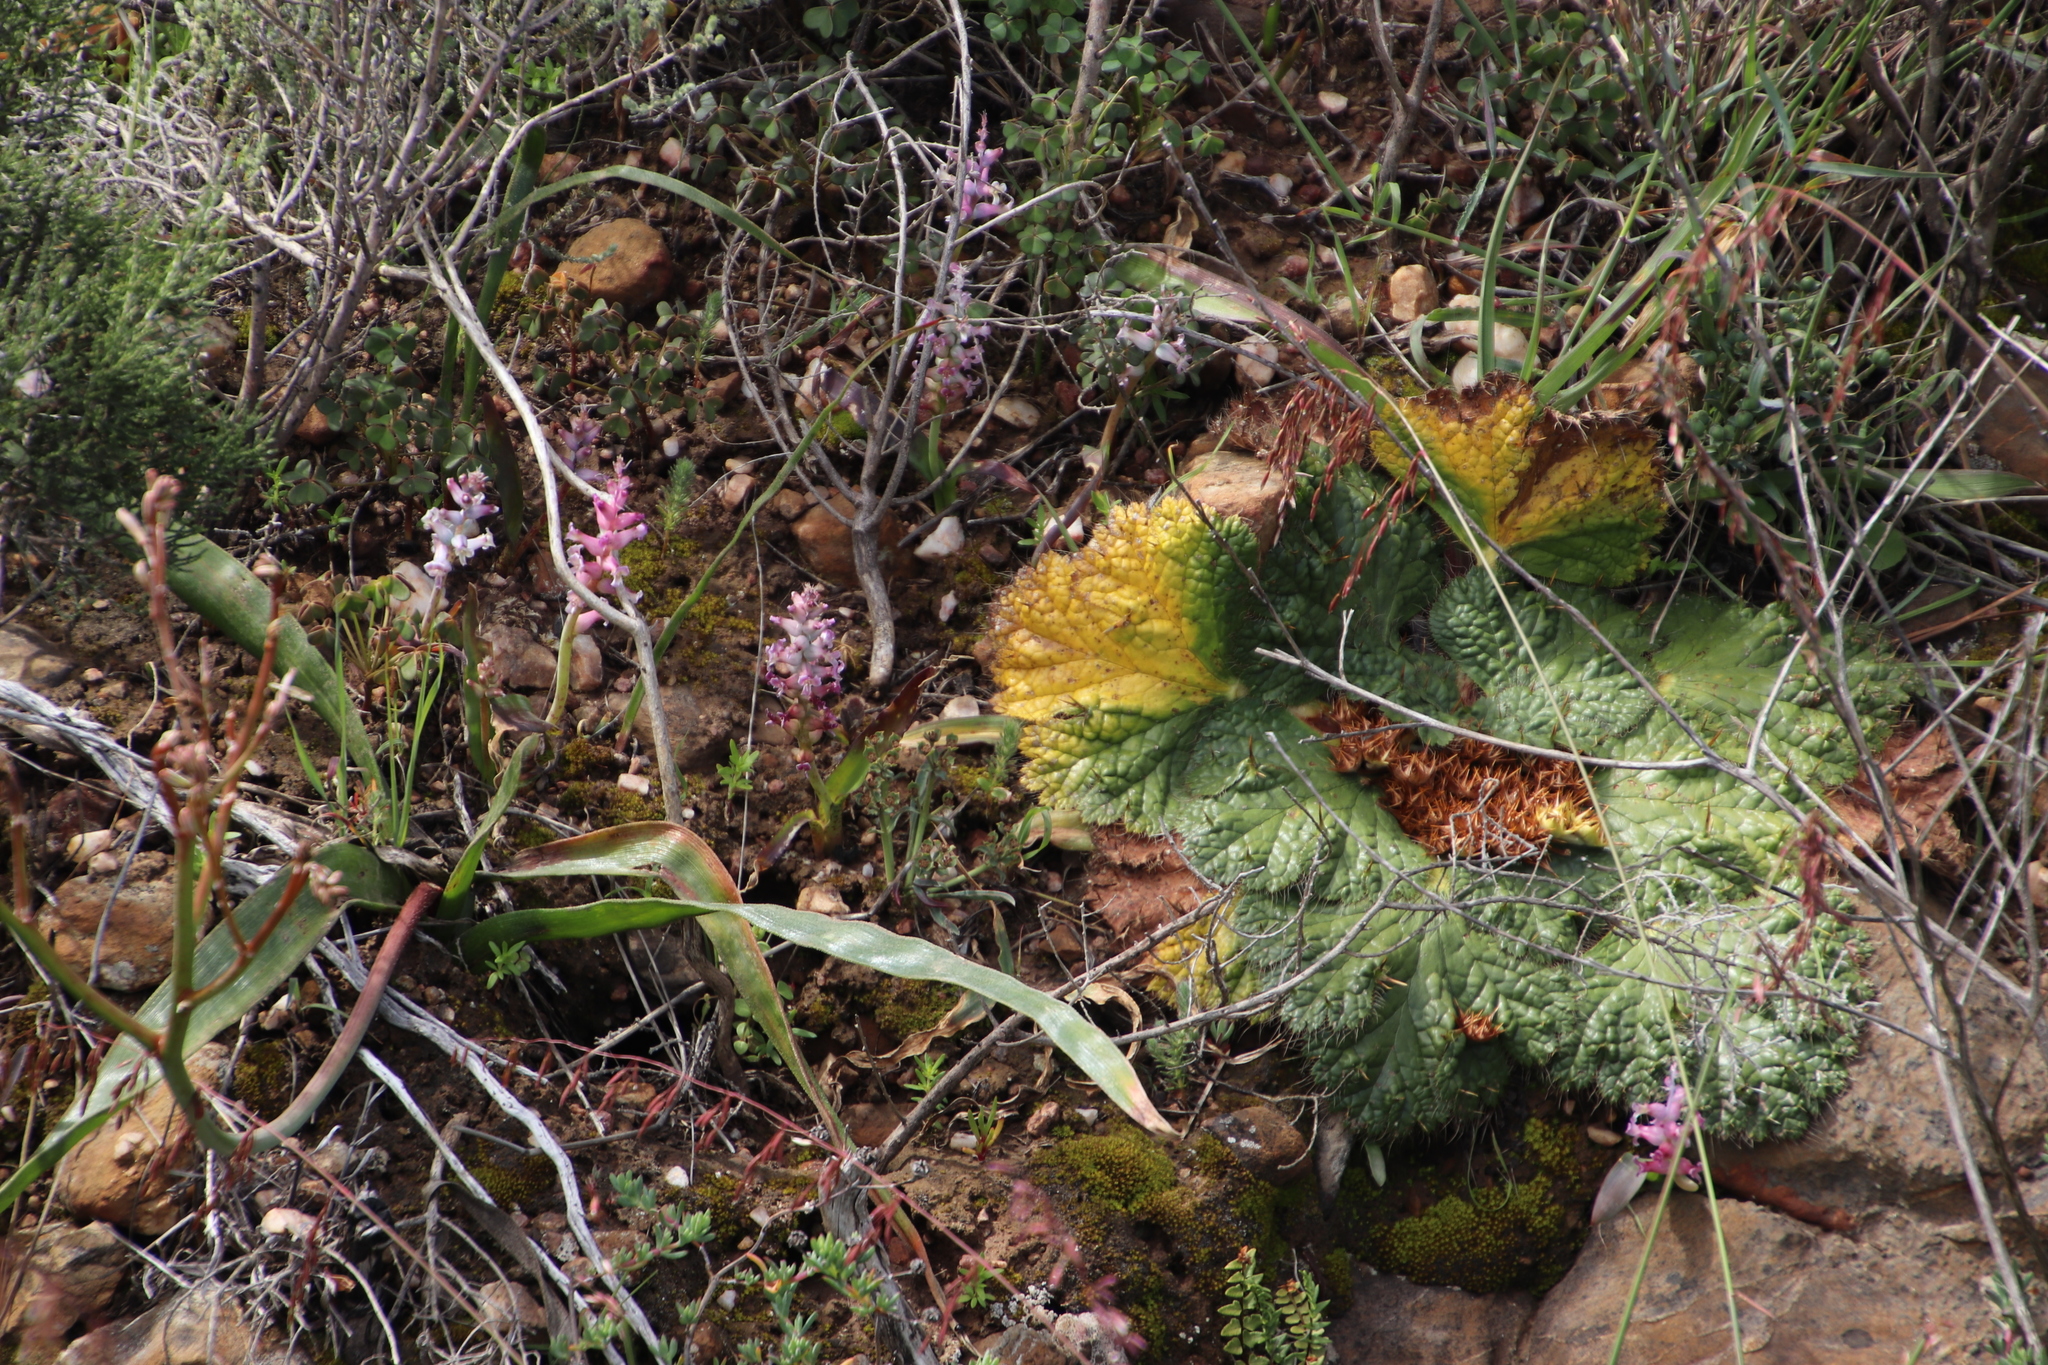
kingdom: Plantae
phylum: Tracheophyta
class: Magnoliopsida
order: Apiales
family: Apiaceae
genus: Arctopus
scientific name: Arctopus echinatus
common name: Platdoring
